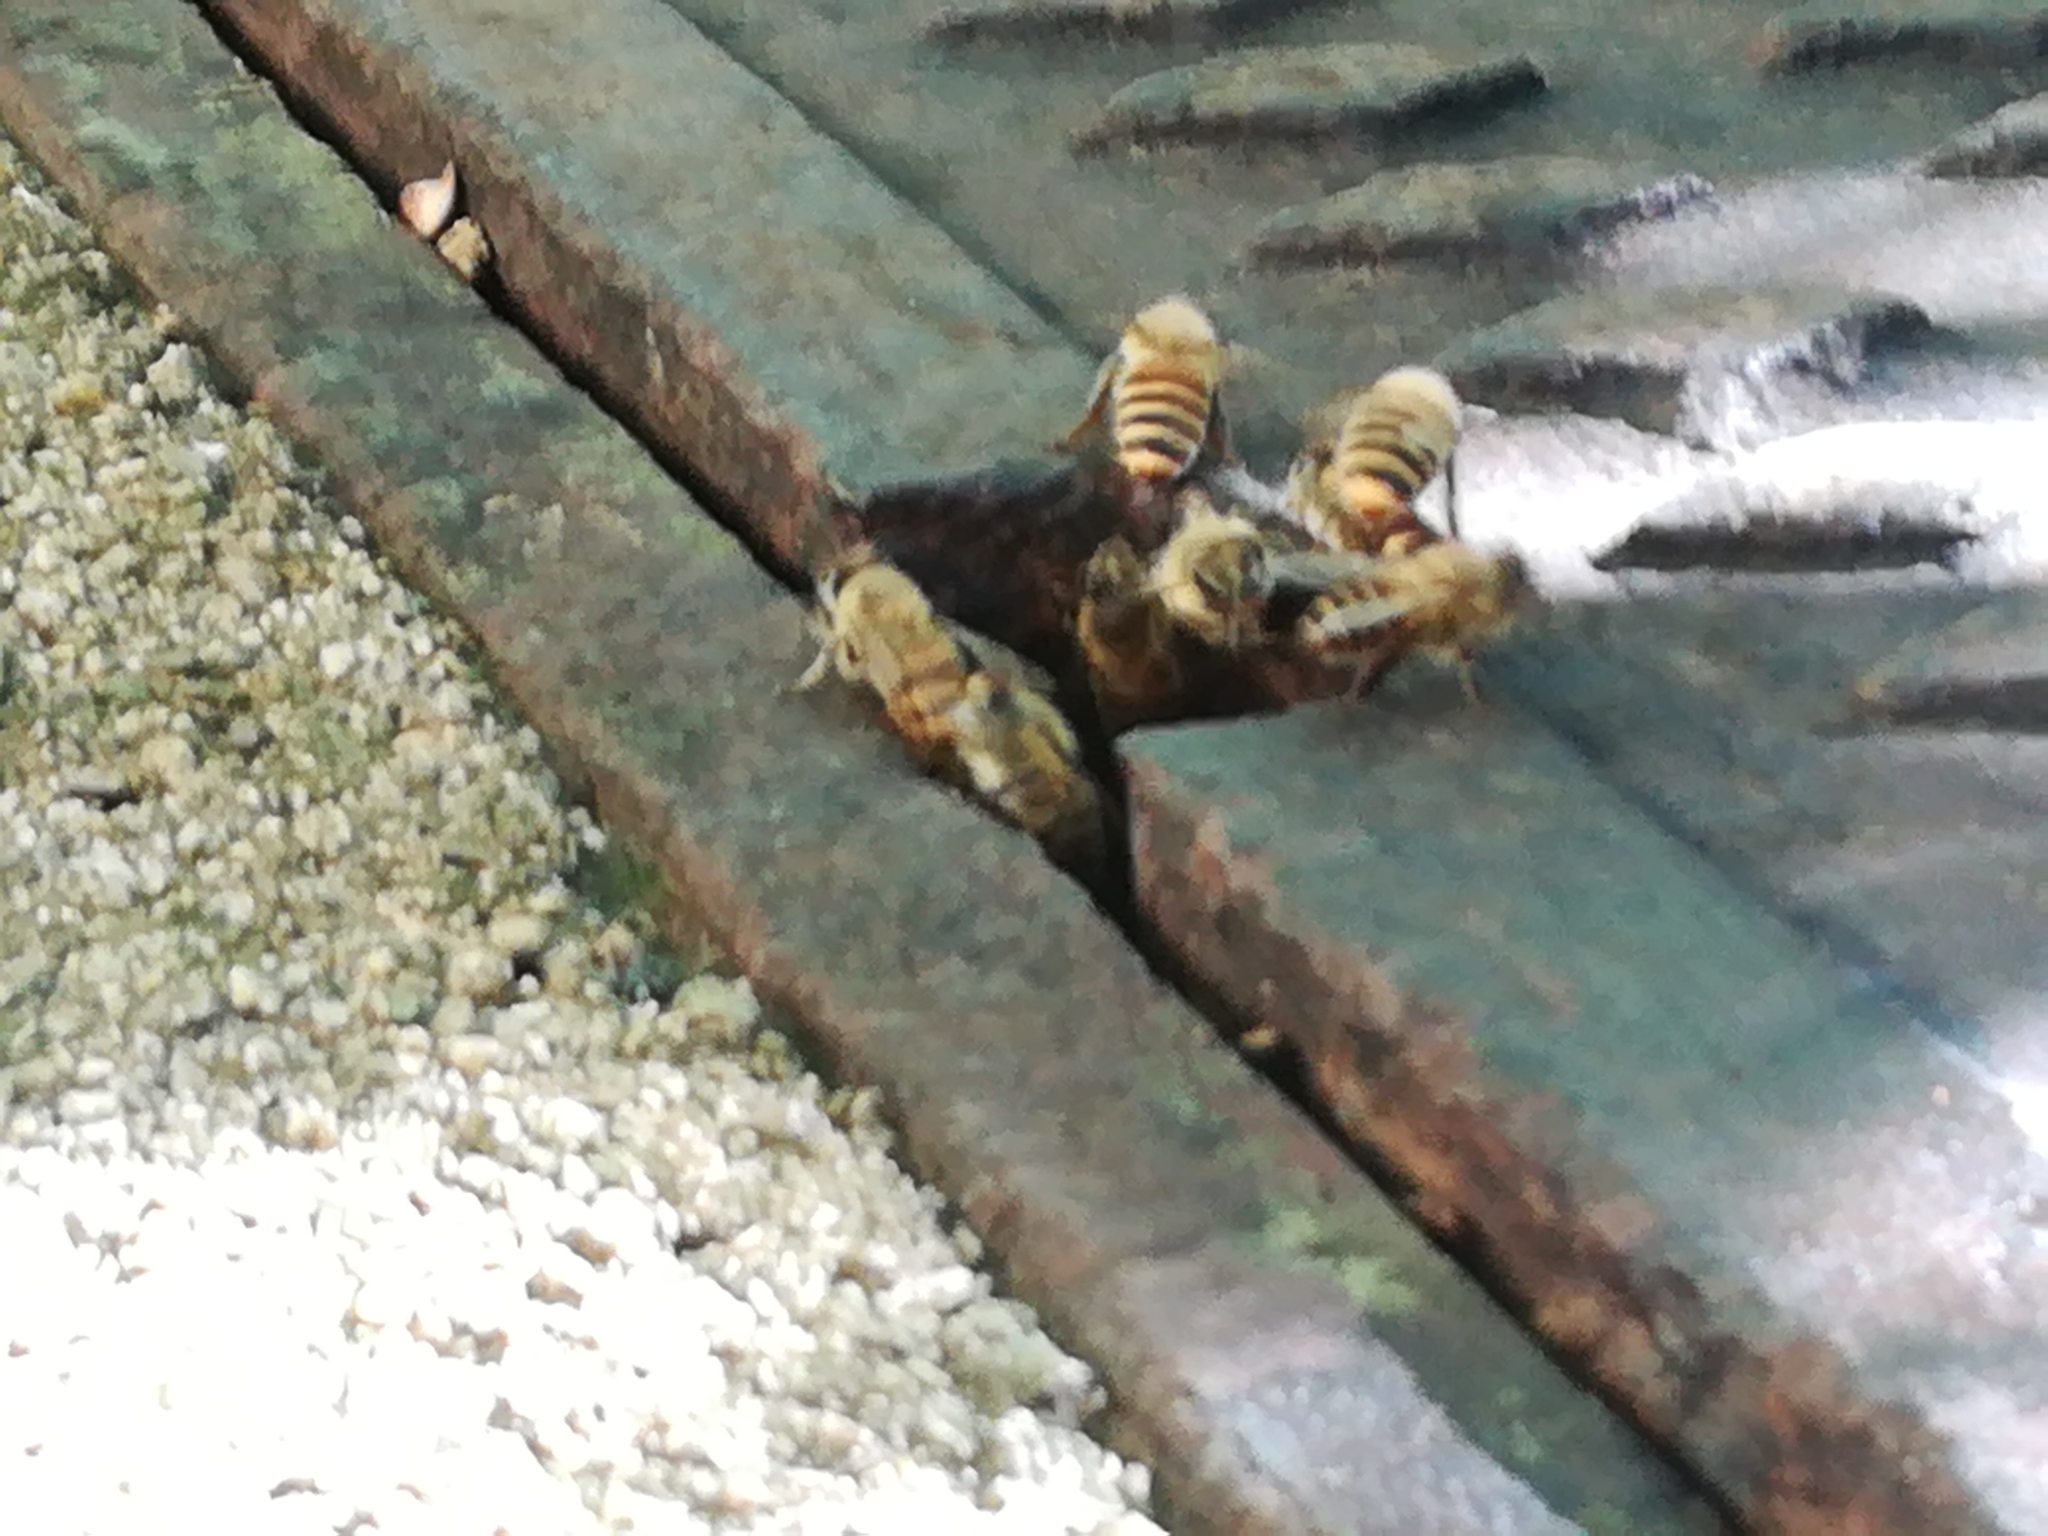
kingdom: Animalia
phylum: Arthropoda
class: Insecta
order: Hymenoptera
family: Apidae
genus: Apis
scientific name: Apis
